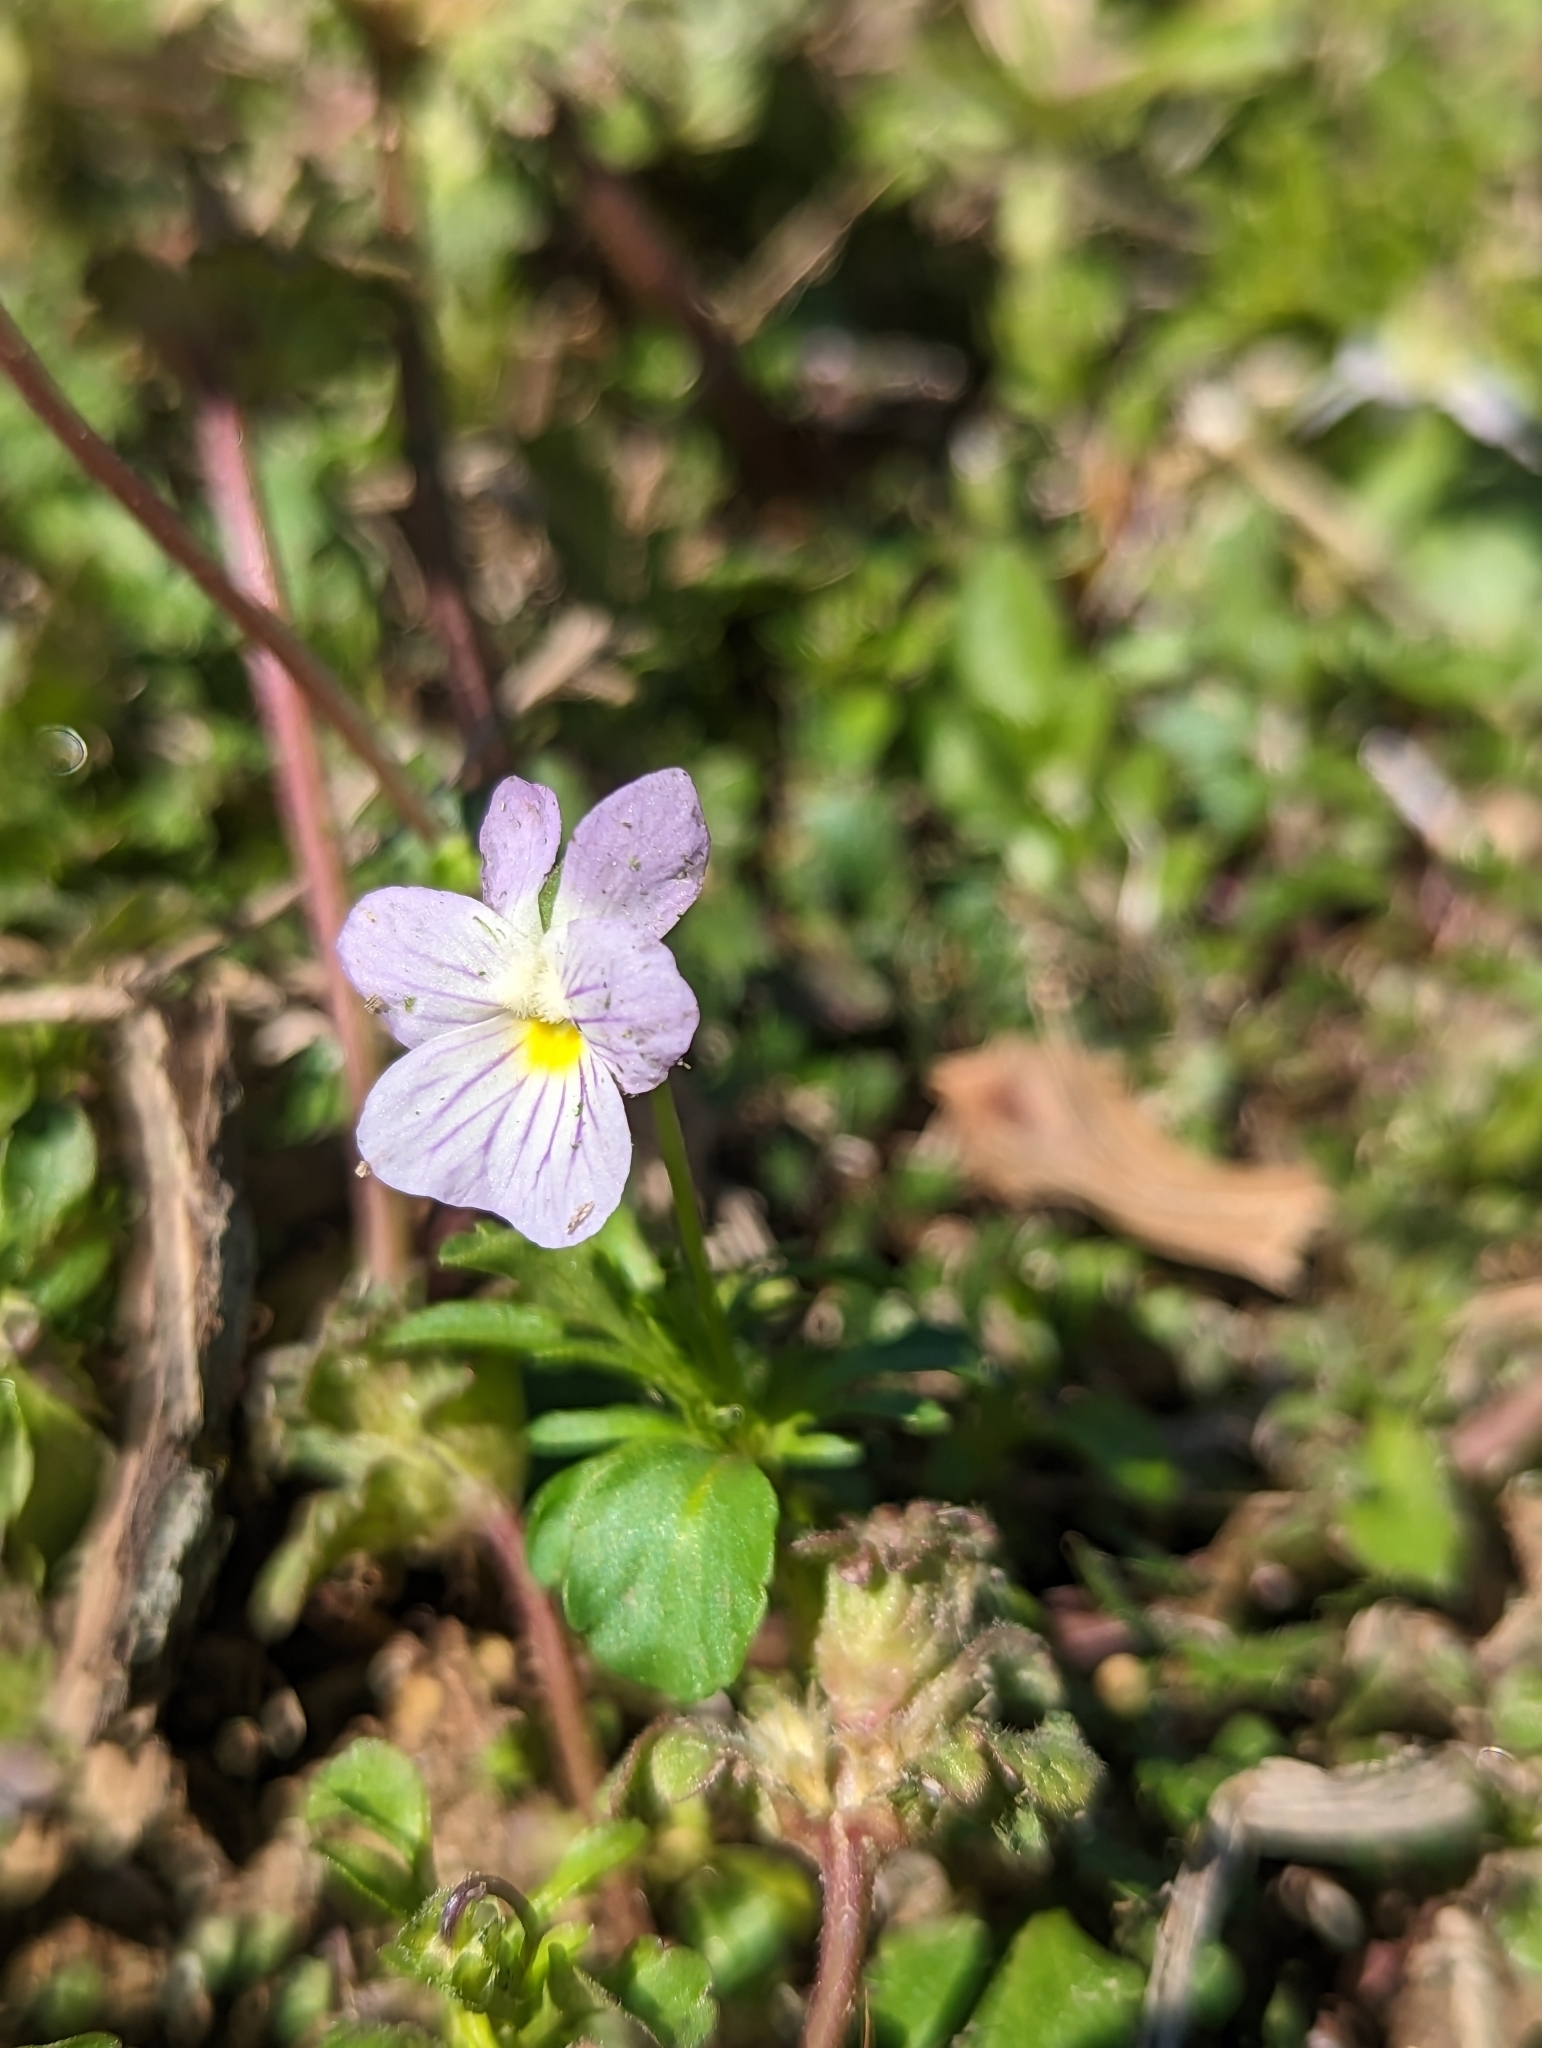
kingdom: Plantae
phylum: Tracheophyta
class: Magnoliopsida
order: Malpighiales
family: Violaceae
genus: Viola
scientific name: Viola rafinesquei
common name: American field pansy
